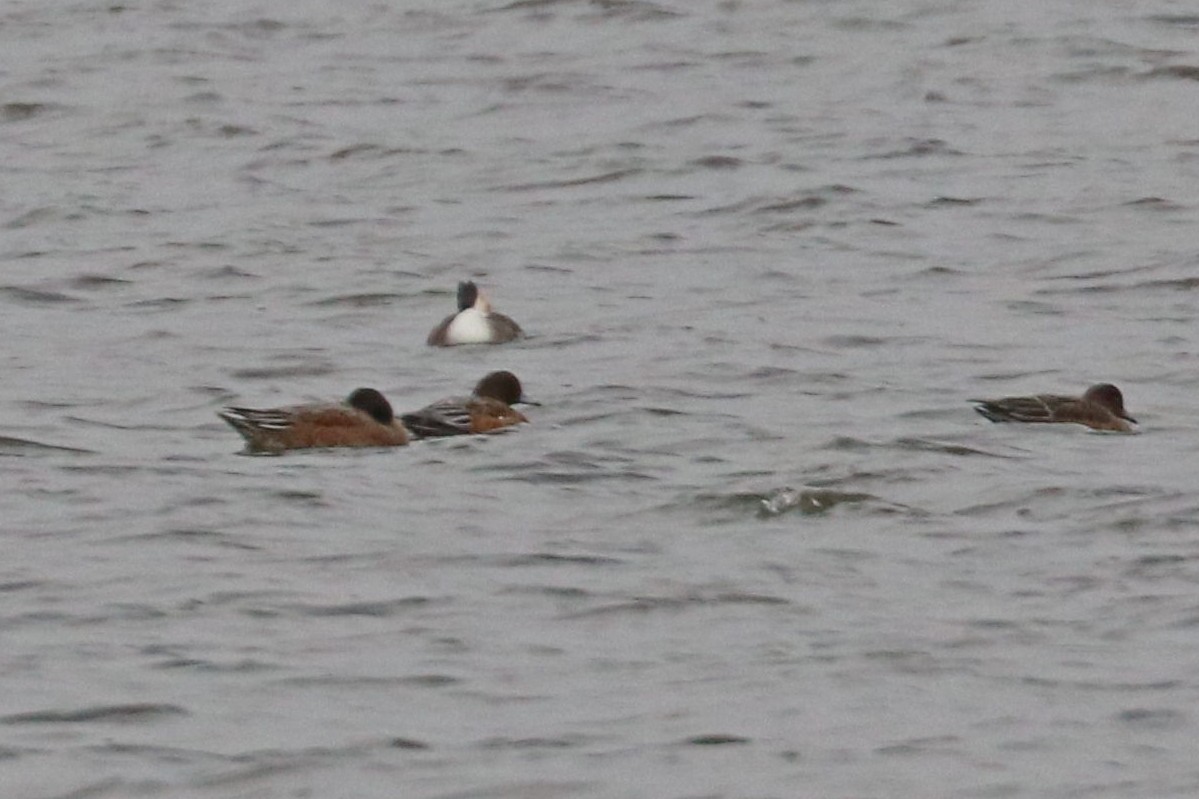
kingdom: Animalia
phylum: Chordata
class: Aves
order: Anseriformes
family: Anatidae
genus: Mareca
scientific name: Mareca penelope
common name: Eurasian wigeon
